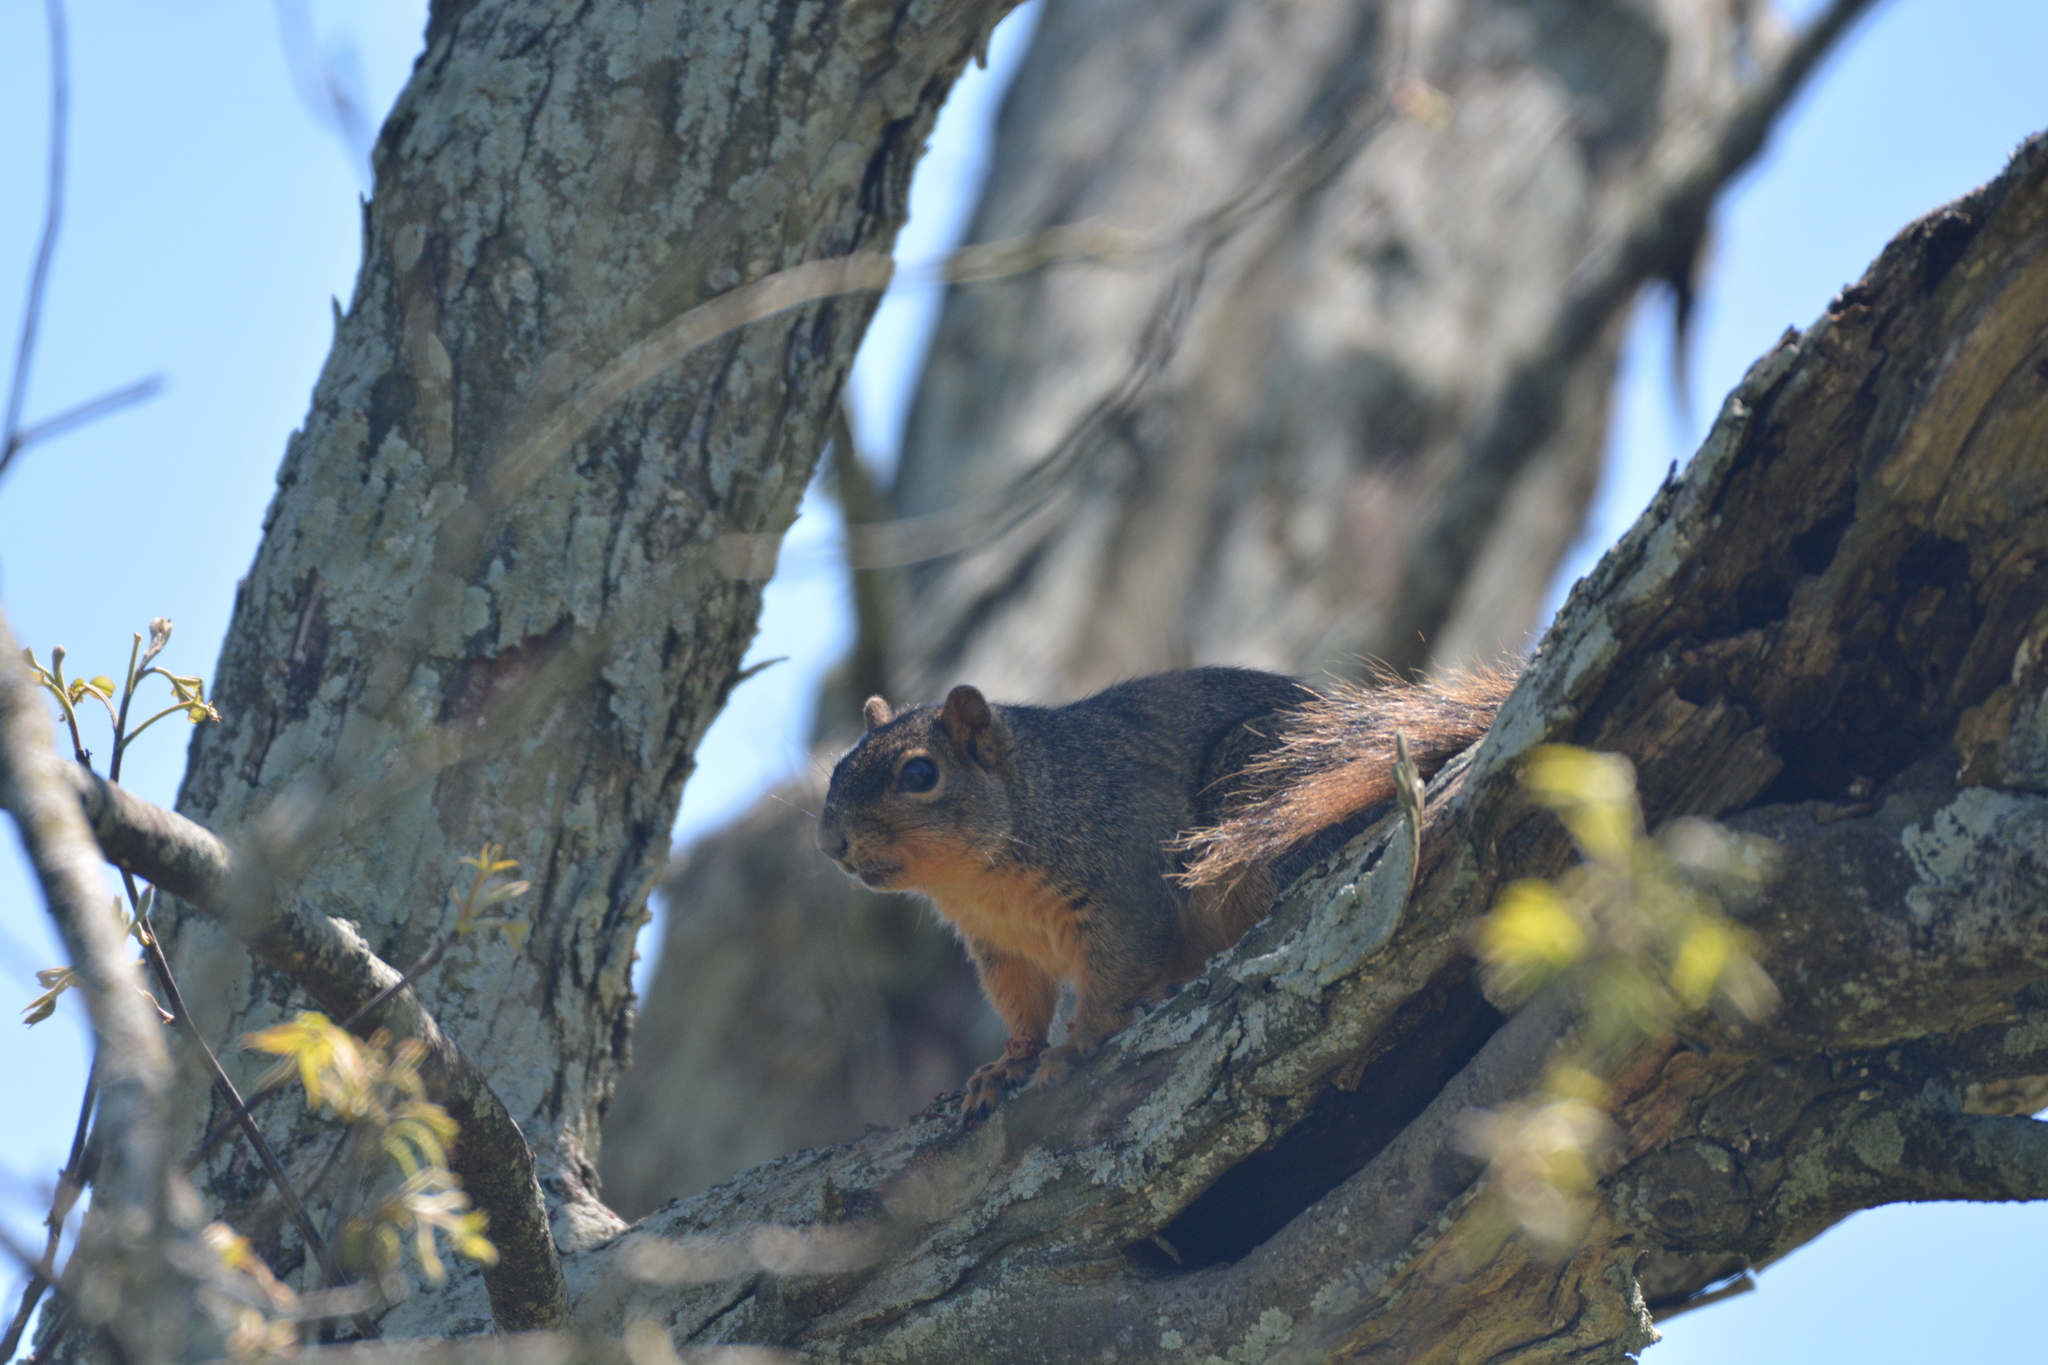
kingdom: Animalia
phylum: Chordata
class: Mammalia
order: Rodentia
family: Sciuridae
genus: Sciurus
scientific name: Sciurus niger
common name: Fox squirrel
